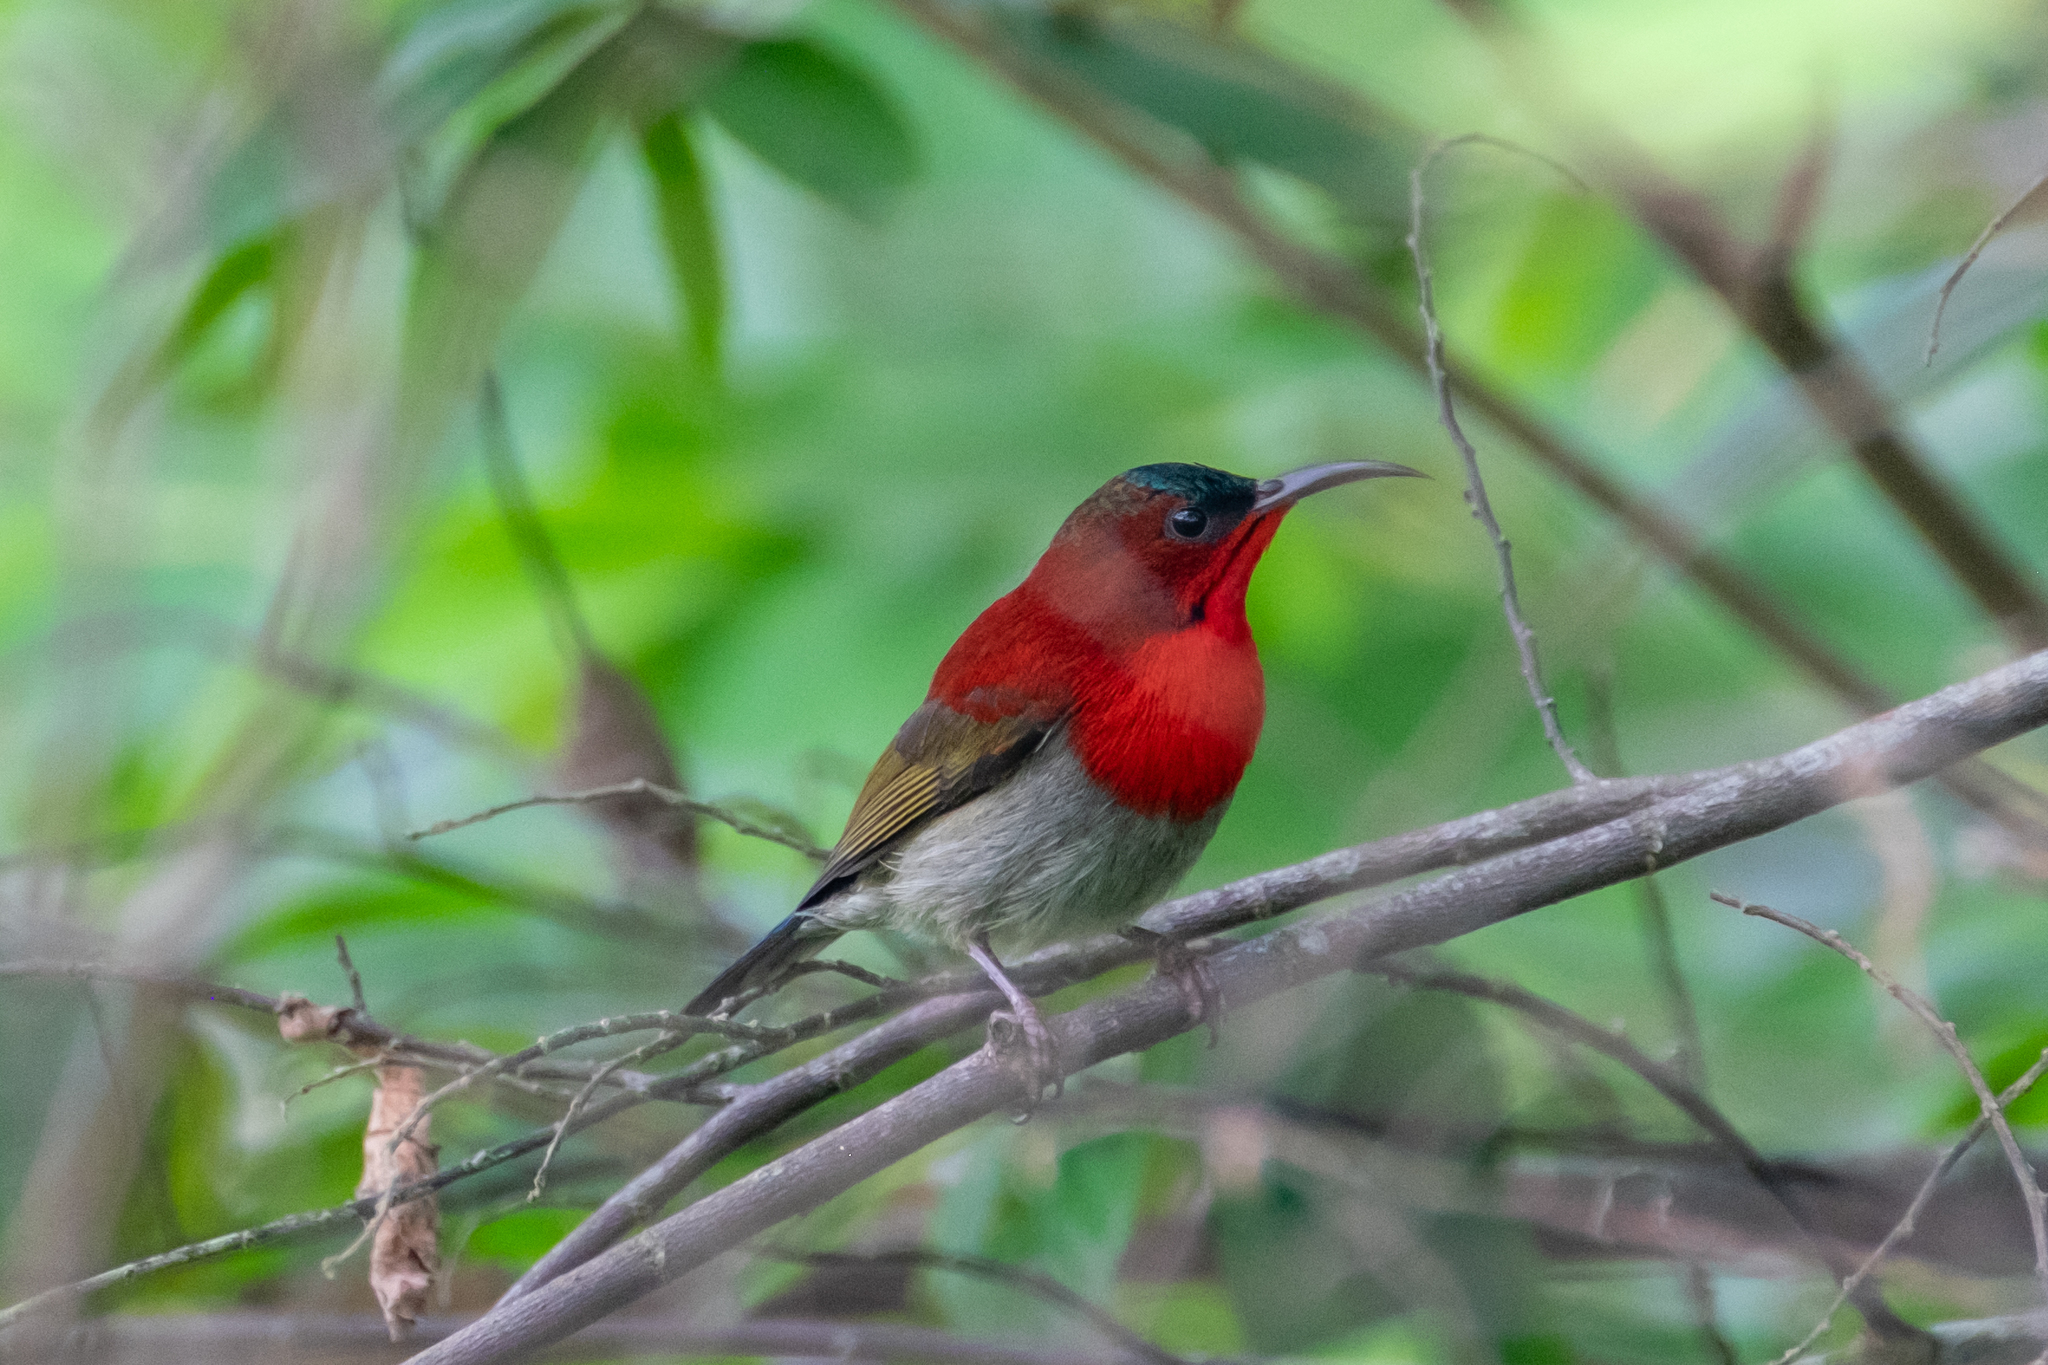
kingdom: Animalia
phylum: Chordata
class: Aves
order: Passeriformes
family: Nectariniidae
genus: Aethopyga
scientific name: Aethopyga siparaja
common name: Crimson sunbird
